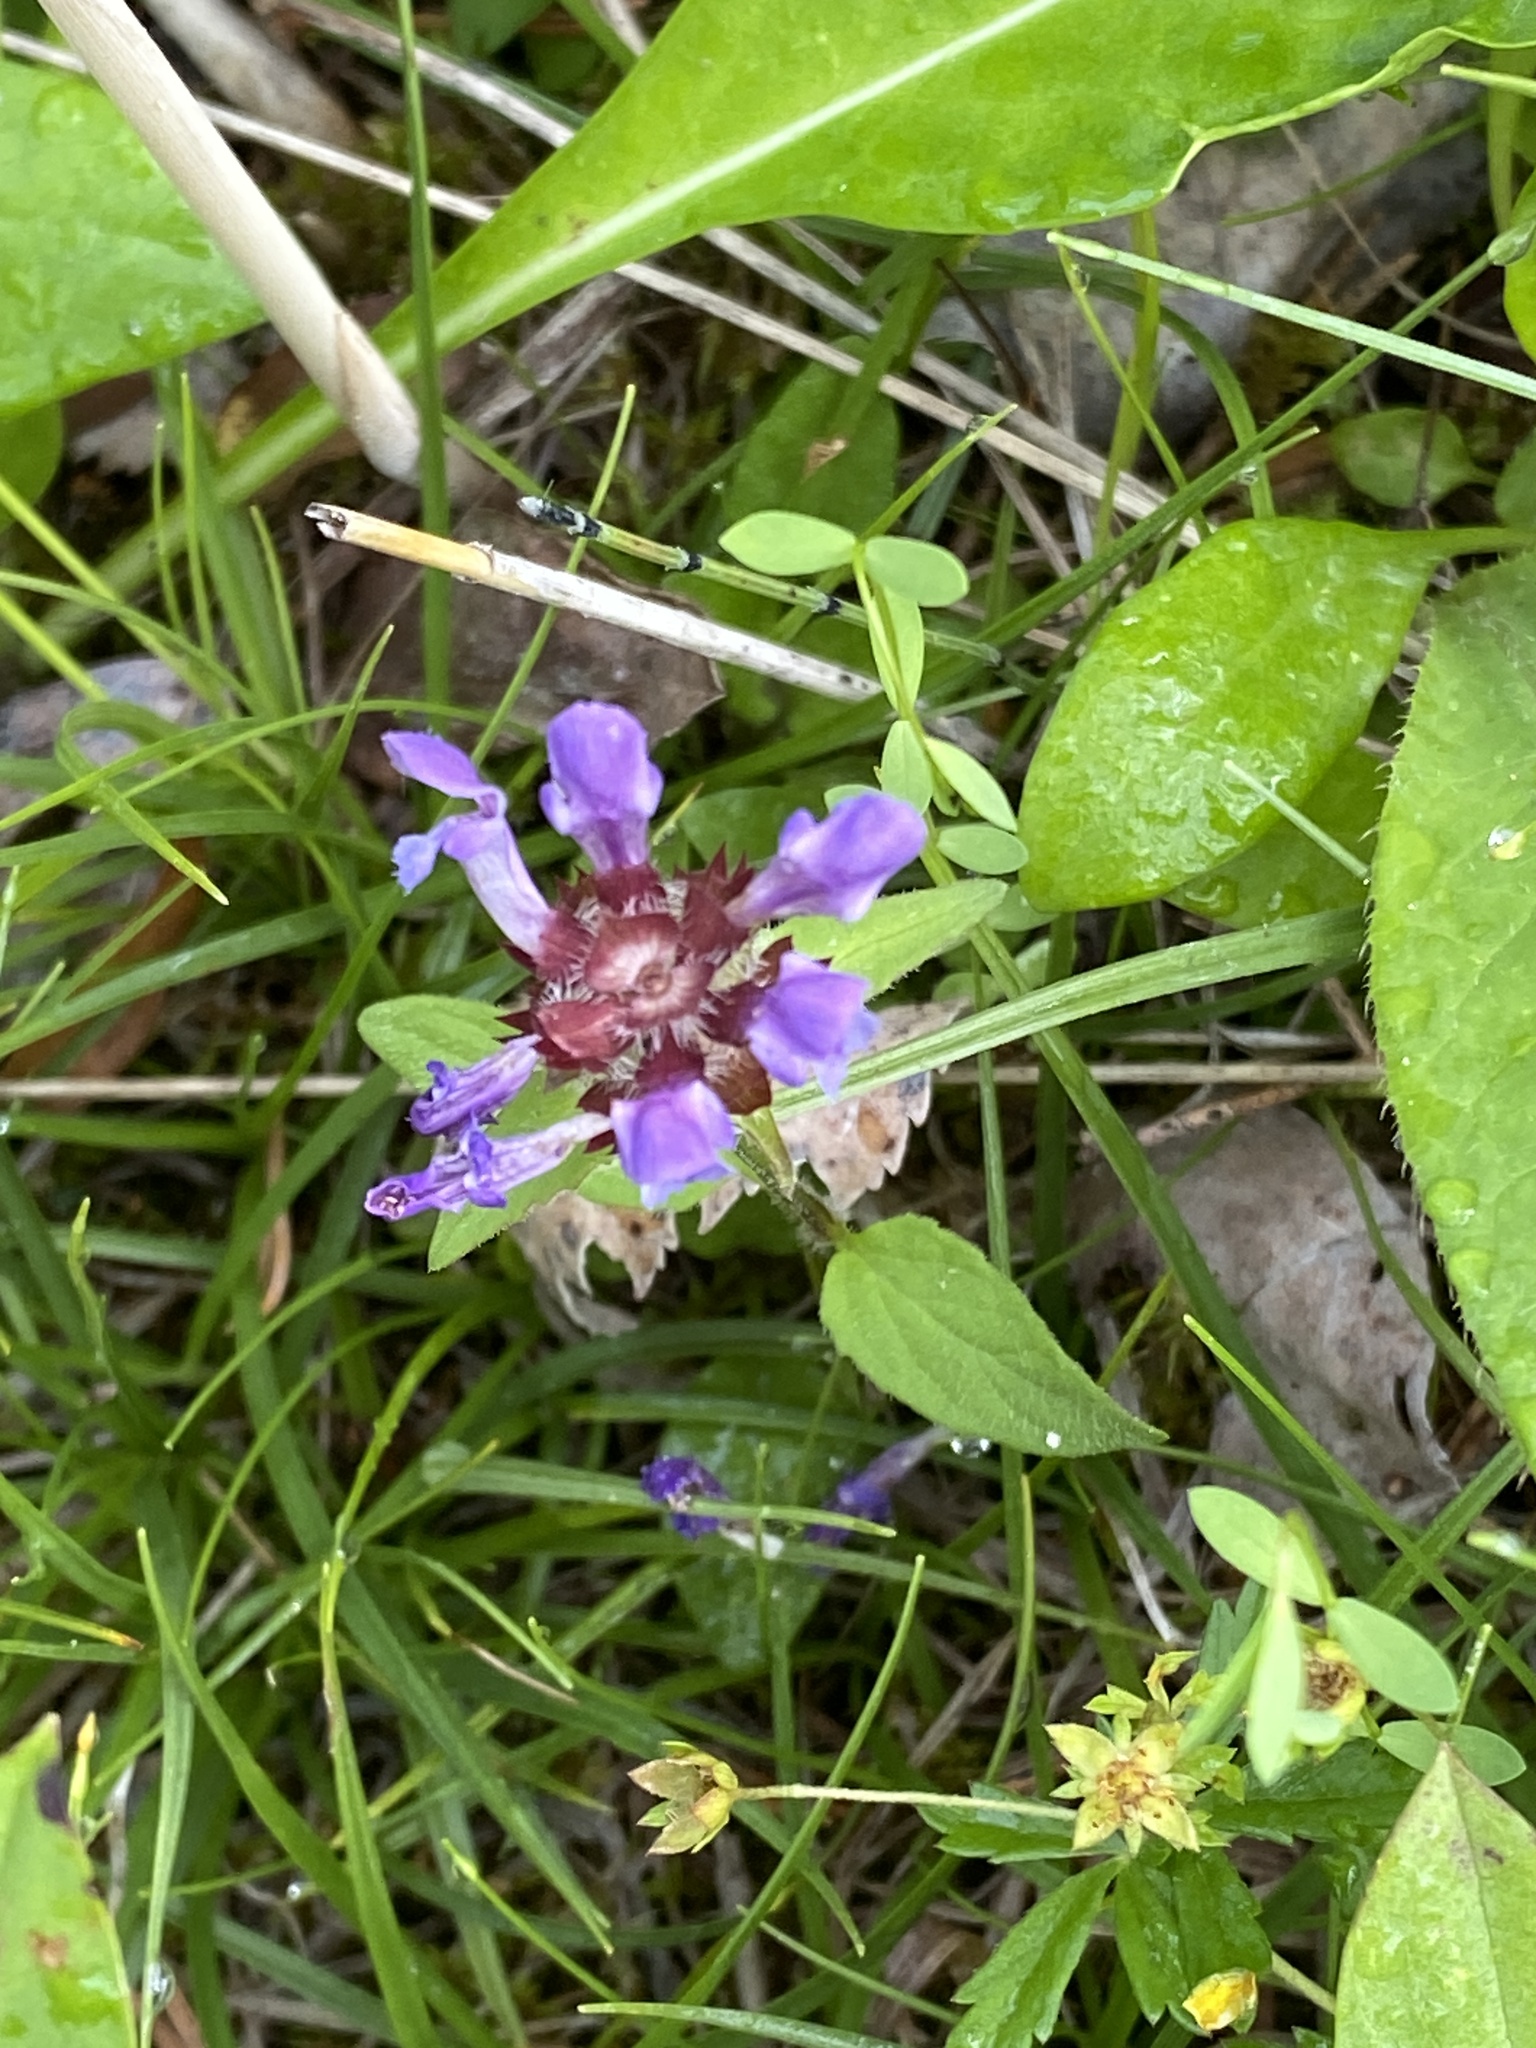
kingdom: Plantae
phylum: Tracheophyta
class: Magnoliopsida
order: Lamiales
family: Lamiaceae
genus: Prunella
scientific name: Prunella vulgaris
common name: Heal-all
